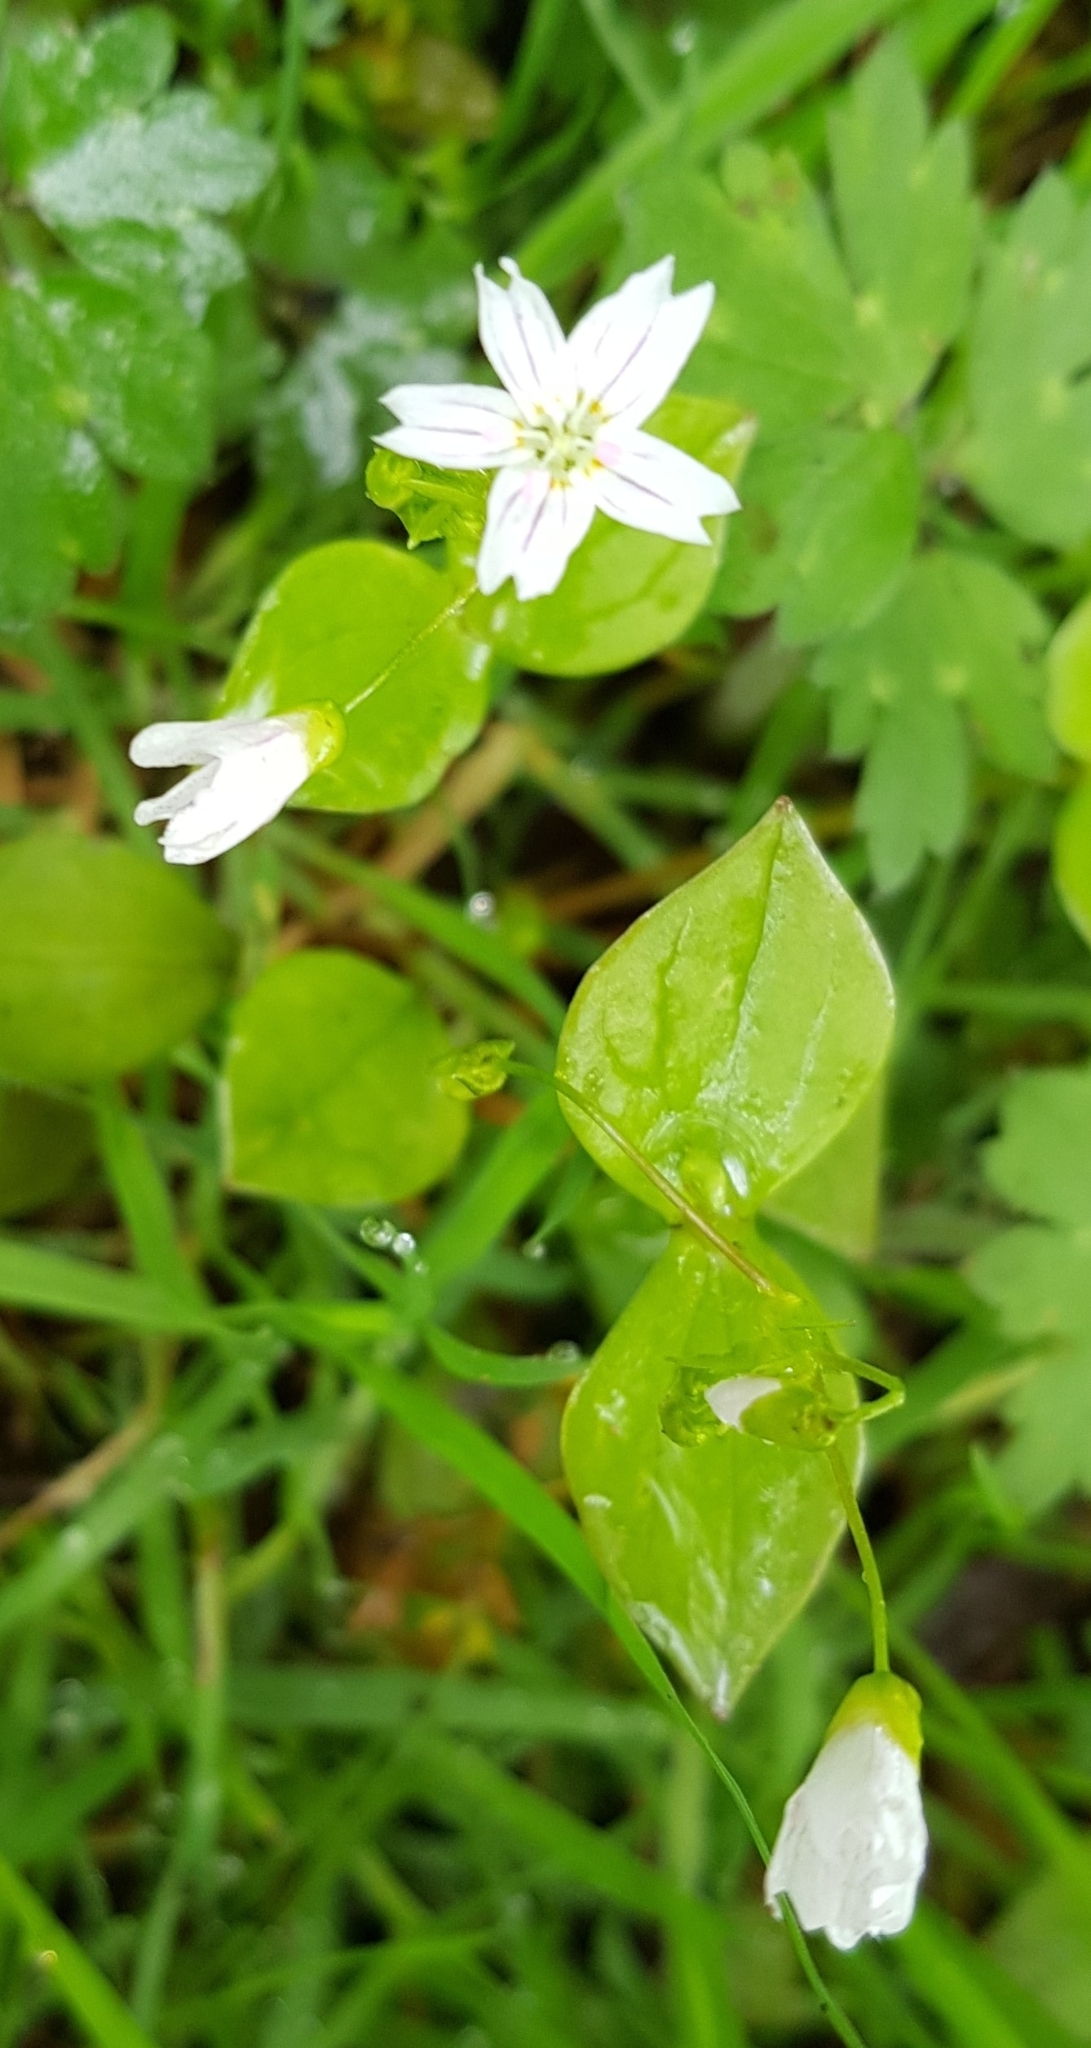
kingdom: Plantae
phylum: Tracheophyta
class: Magnoliopsida
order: Caryophyllales
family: Montiaceae
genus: Claytonia
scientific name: Claytonia sibirica
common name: Pink purslane
